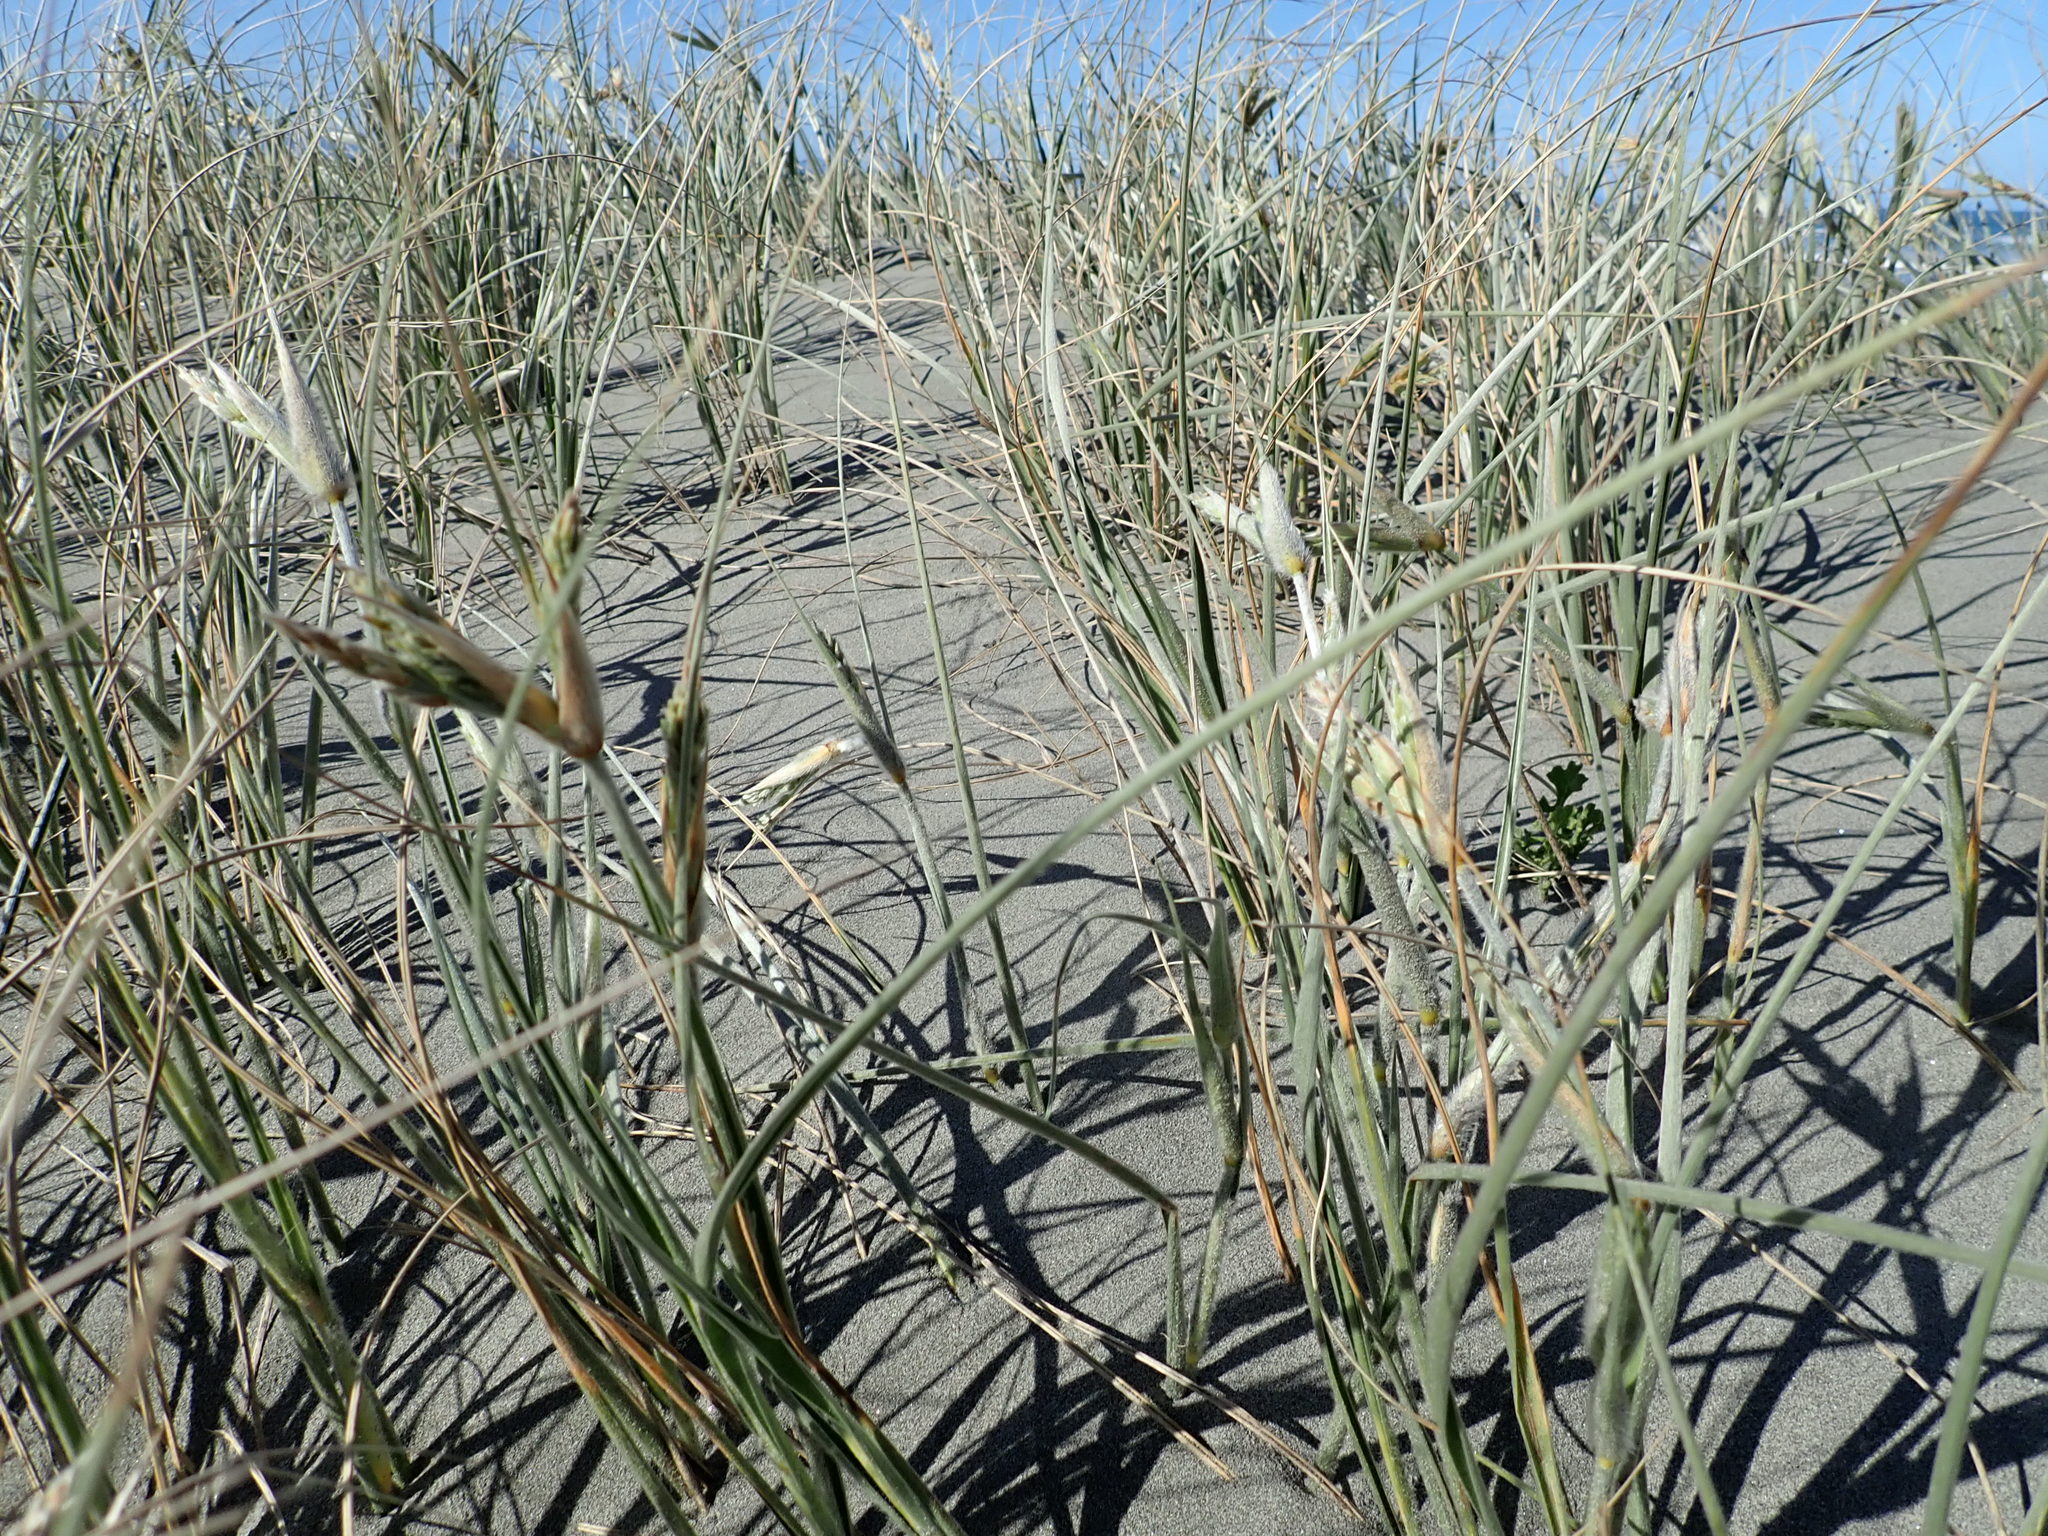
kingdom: Plantae
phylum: Tracheophyta
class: Liliopsida
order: Poales
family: Poaceae
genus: Spinifex
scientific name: Spinifex sericeus
